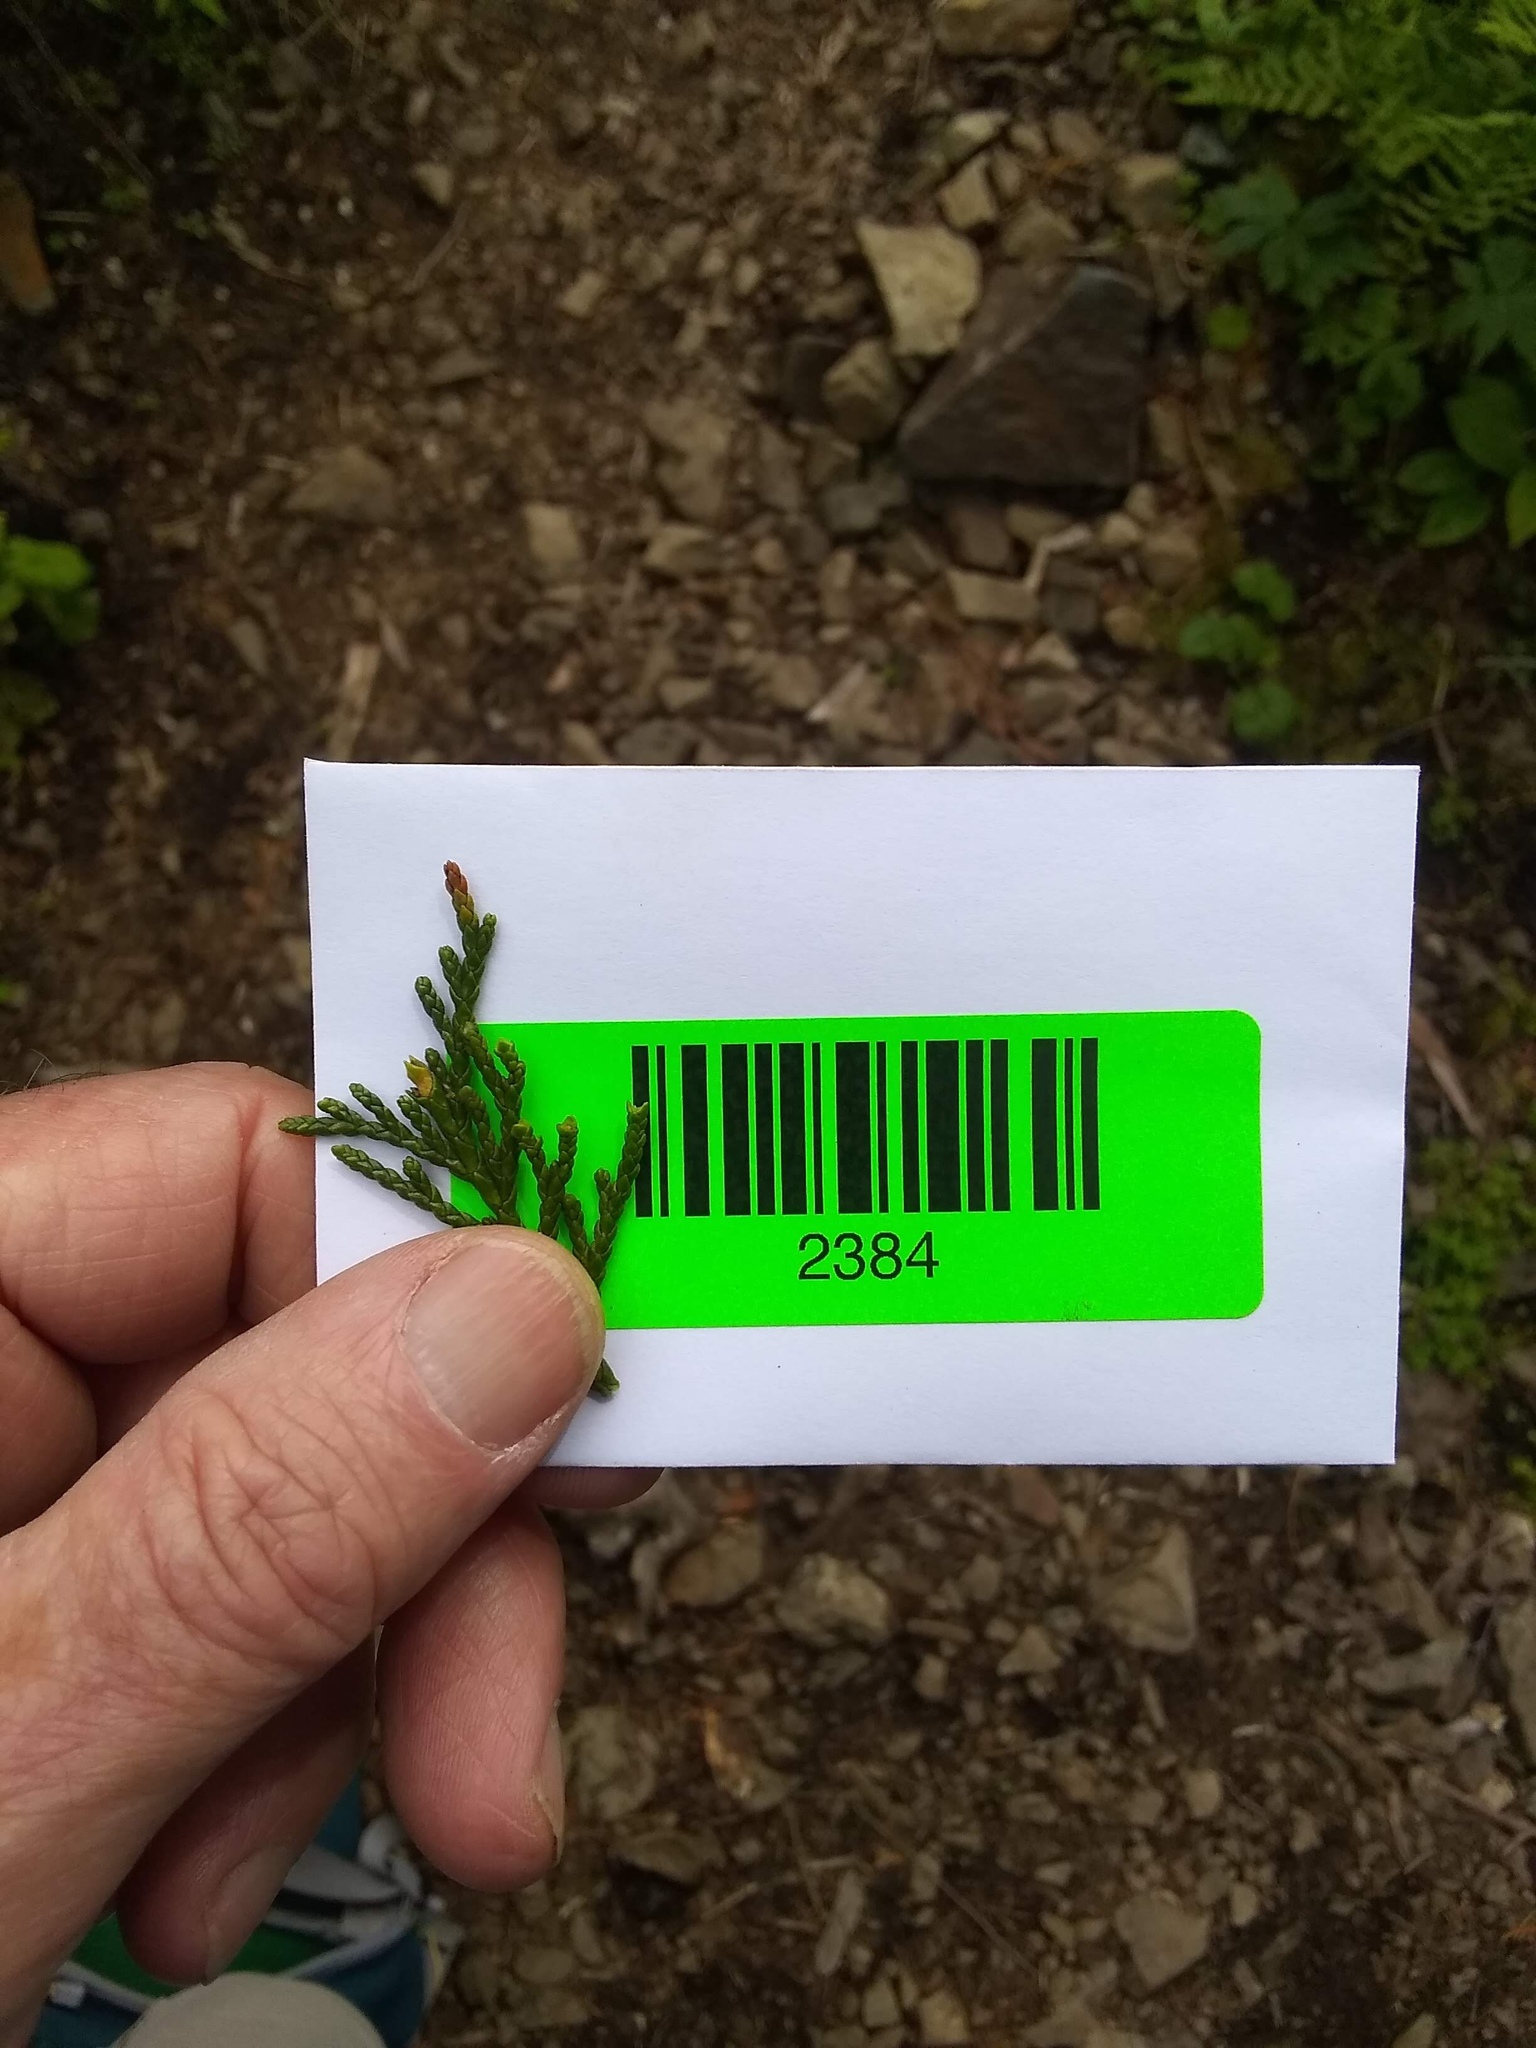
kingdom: Plantae
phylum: Tracheophyta
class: Pinopsida
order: Pinales
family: Cupressaceae
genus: Xanthocyparis
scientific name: Xanthocyparis nootkatensis
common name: Nootka cypress
